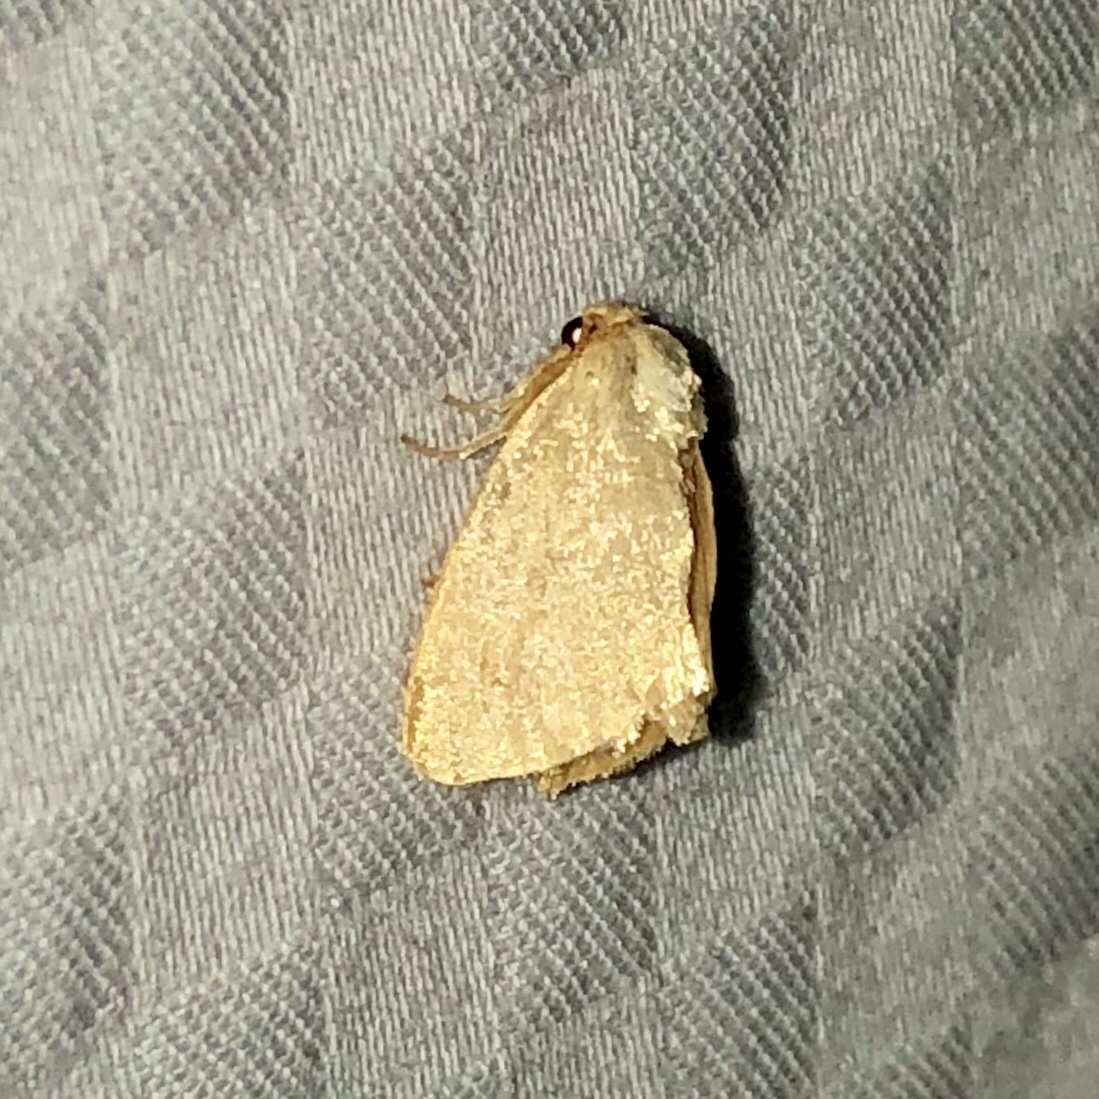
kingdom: Animalia
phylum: Arthropoda
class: Insecta
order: Lepidoptera
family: Limacodidae
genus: Tortricidia
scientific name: Tortricidia pallida
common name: Red-crossed button slug moth
